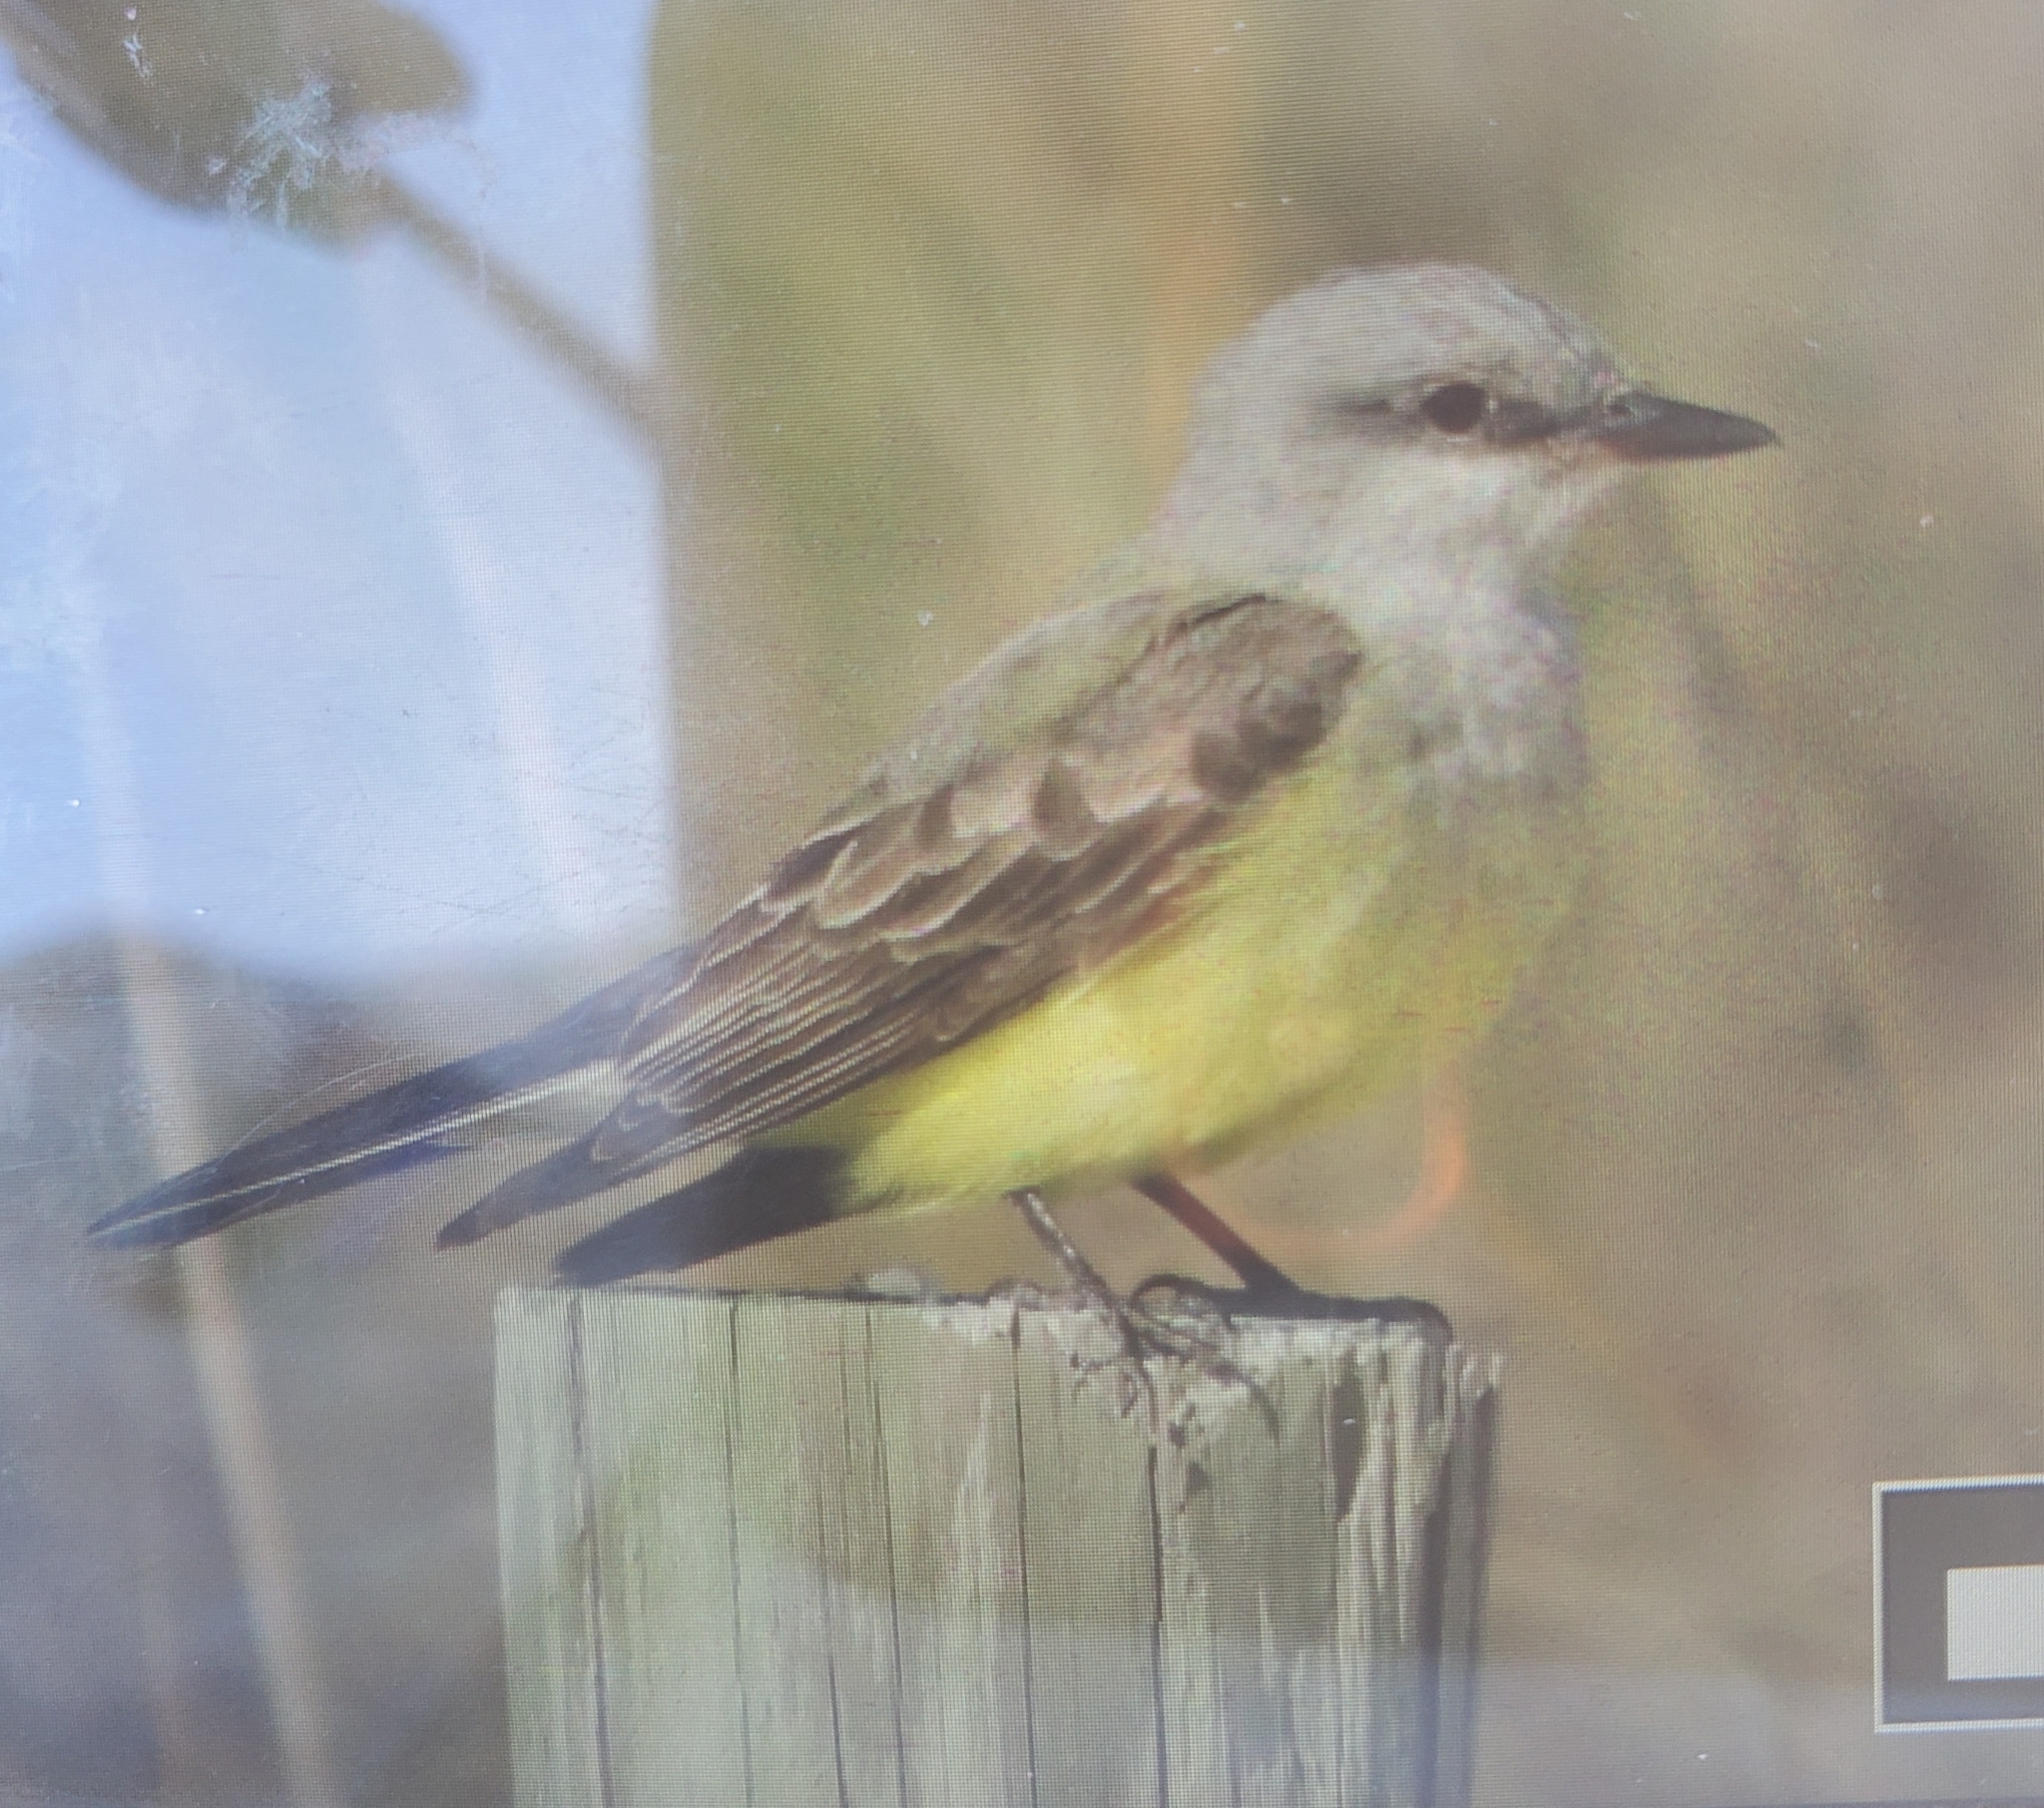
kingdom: Animalia
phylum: Chordata
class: Aves
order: Passeriformes
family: Tyrannidae
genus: Tyrannus
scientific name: Tyrannus verticalis
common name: Western kingbird
